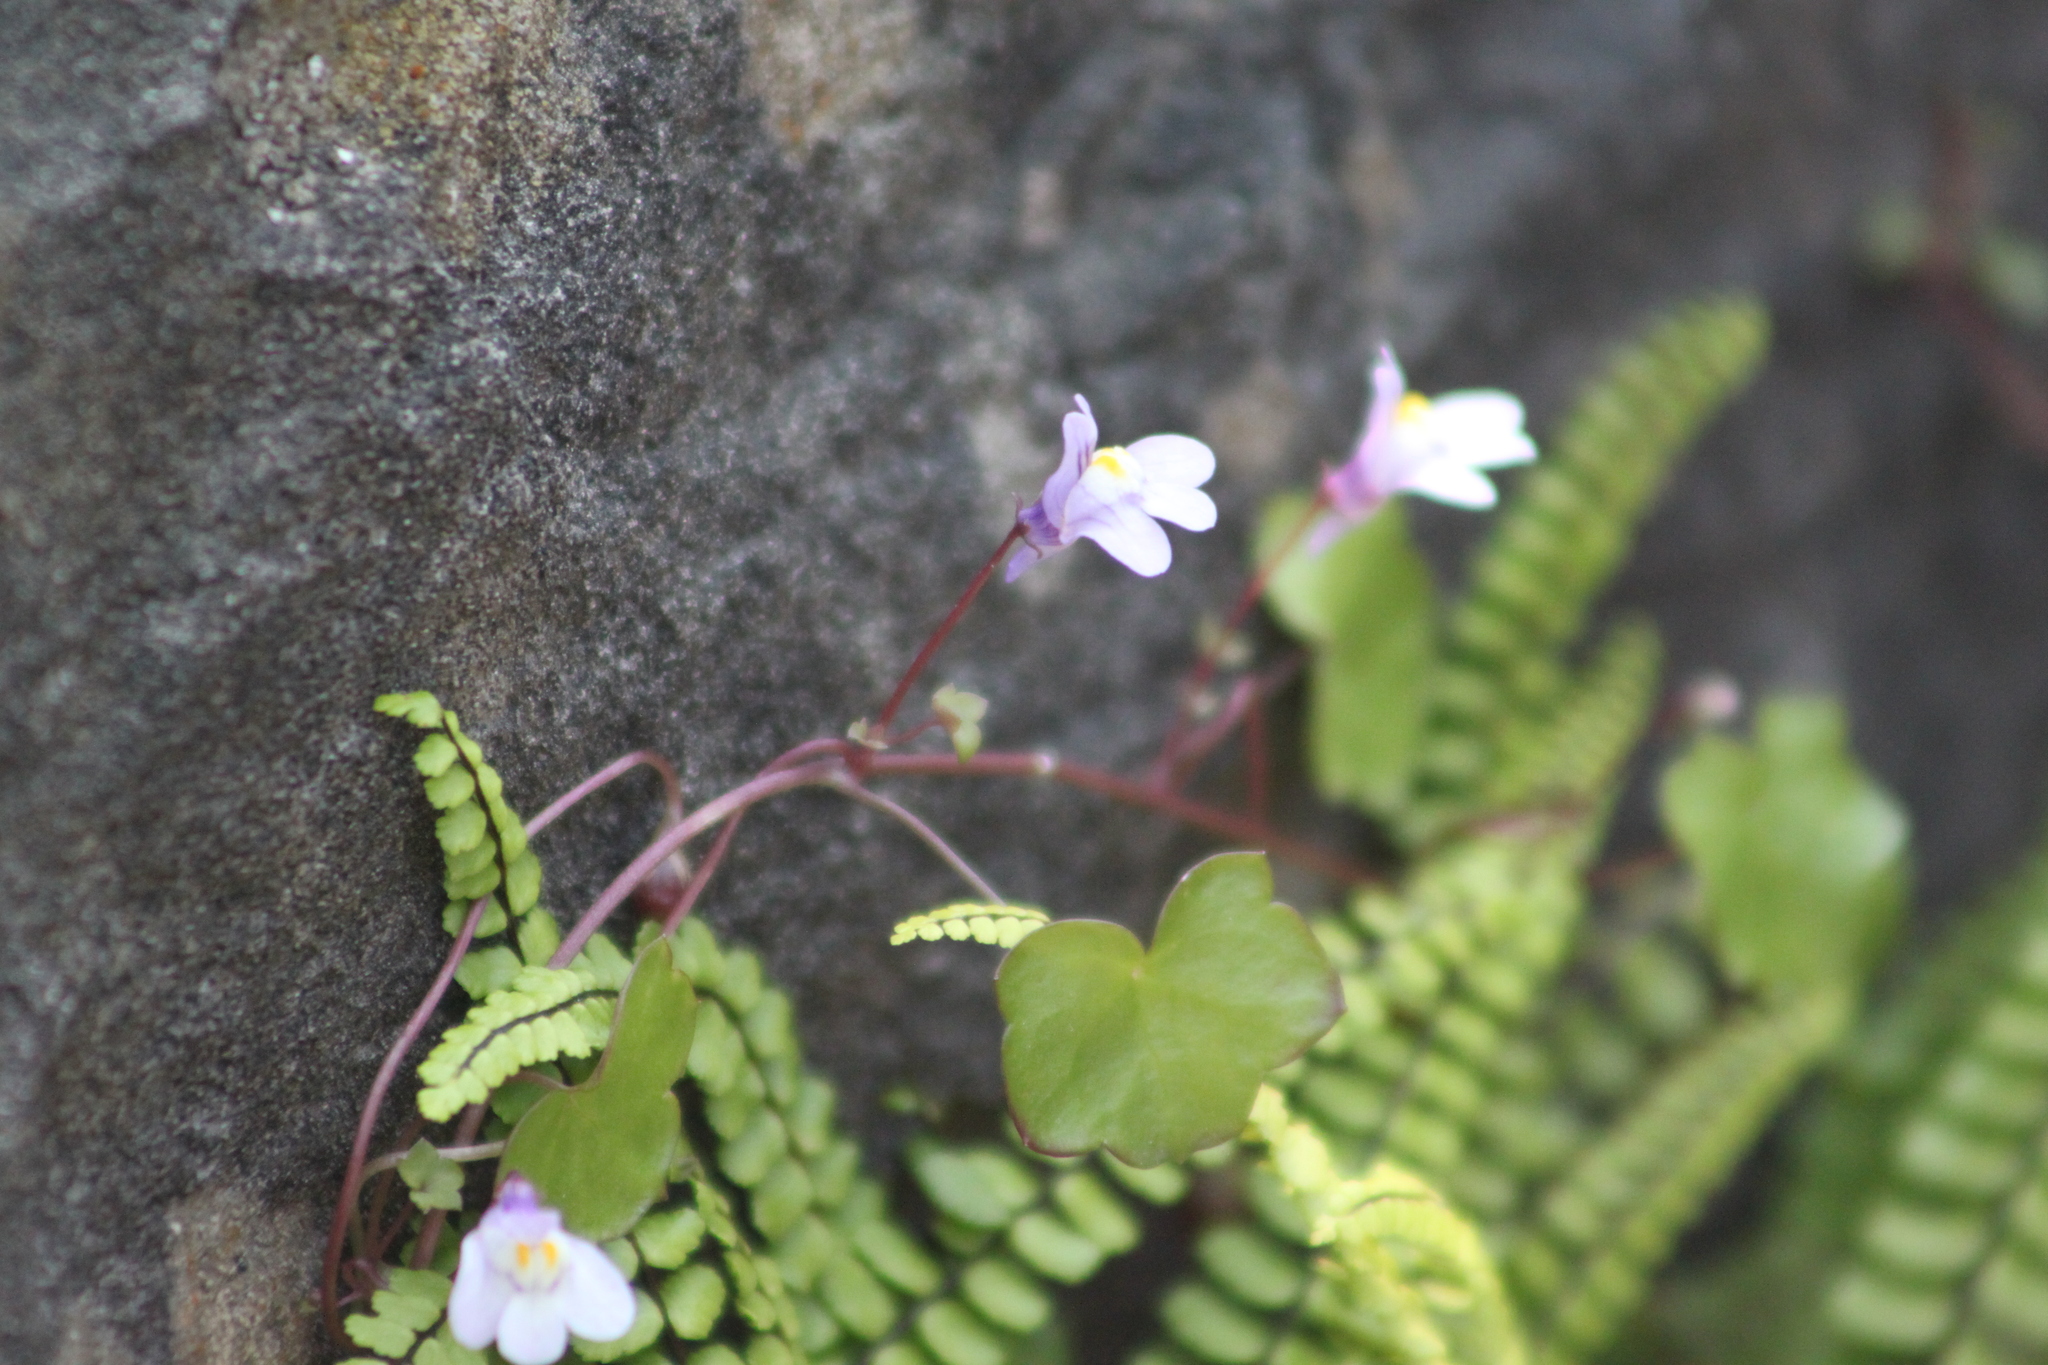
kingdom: Plantae
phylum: Tracheophyta
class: Magnoliopsida
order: Lamiales
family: Plantaginaceae
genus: Cymbalaria
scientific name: Cymbalaria muralis
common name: Ivy-leaved toadflax
